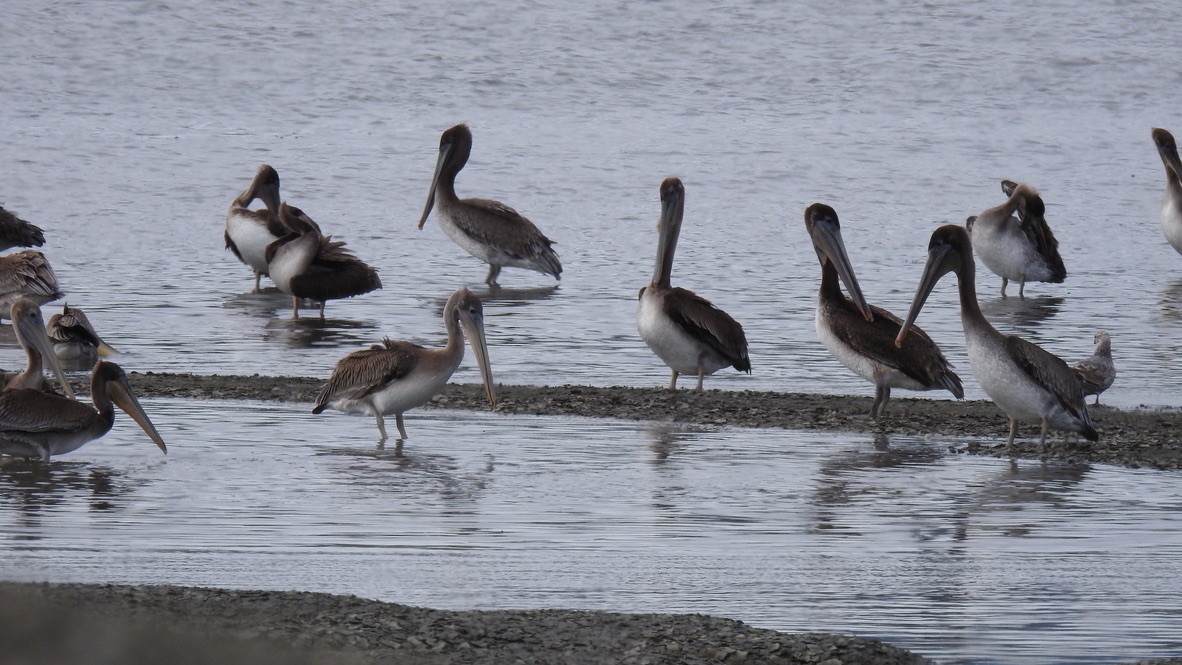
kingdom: Animalia
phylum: Chordata
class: Aves
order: Pelecaniformes
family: Pelecanidae
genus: Pelecanus
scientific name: Pelecanus occidentalis
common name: Brown pelican
